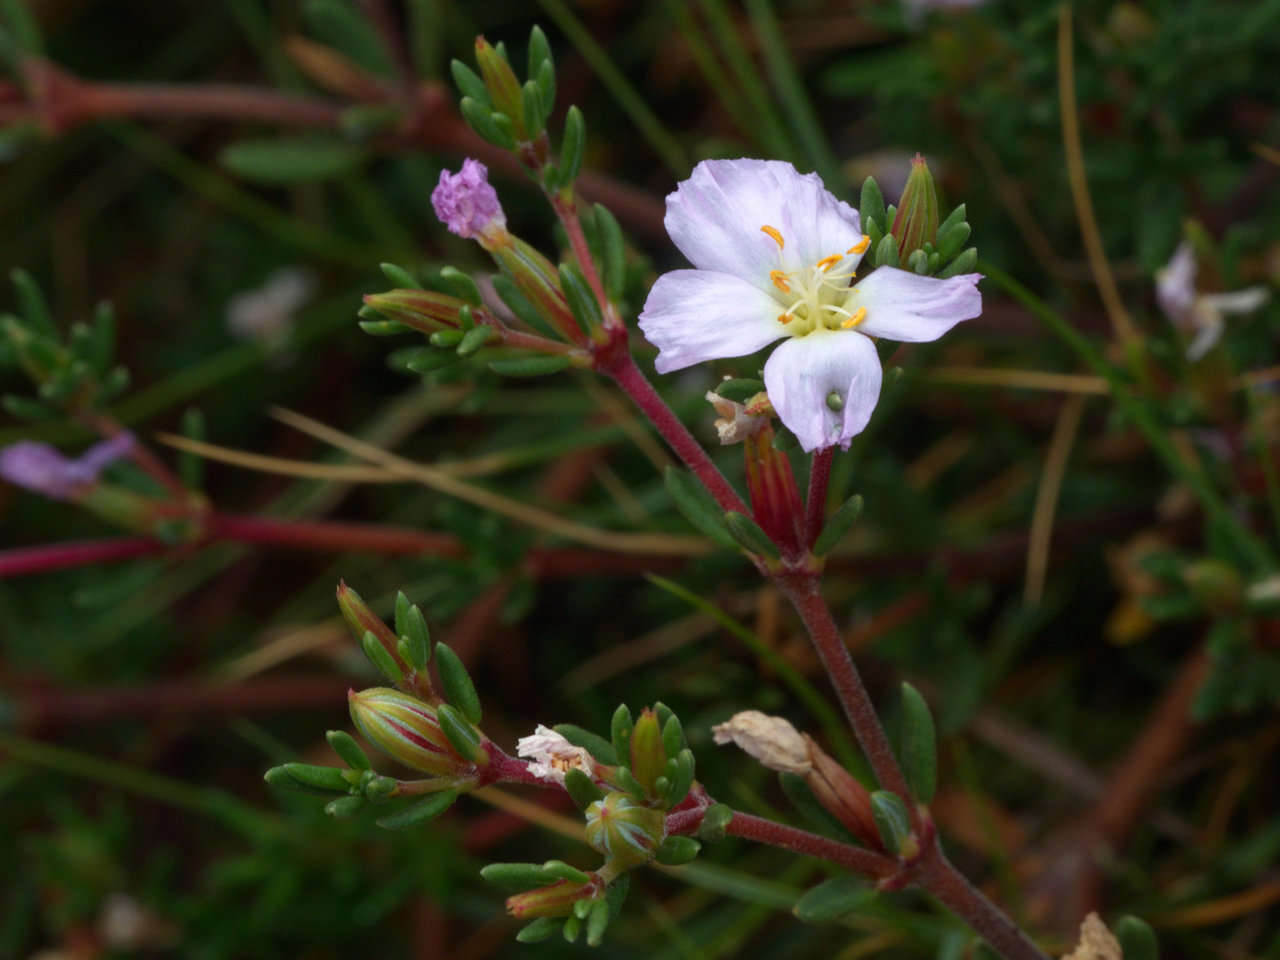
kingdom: Plantae
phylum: Tracheophyta
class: Magnoliopsida
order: Caryophyllales
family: Frankeniaceae
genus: Frankenia
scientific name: Frankenia pauciflora
